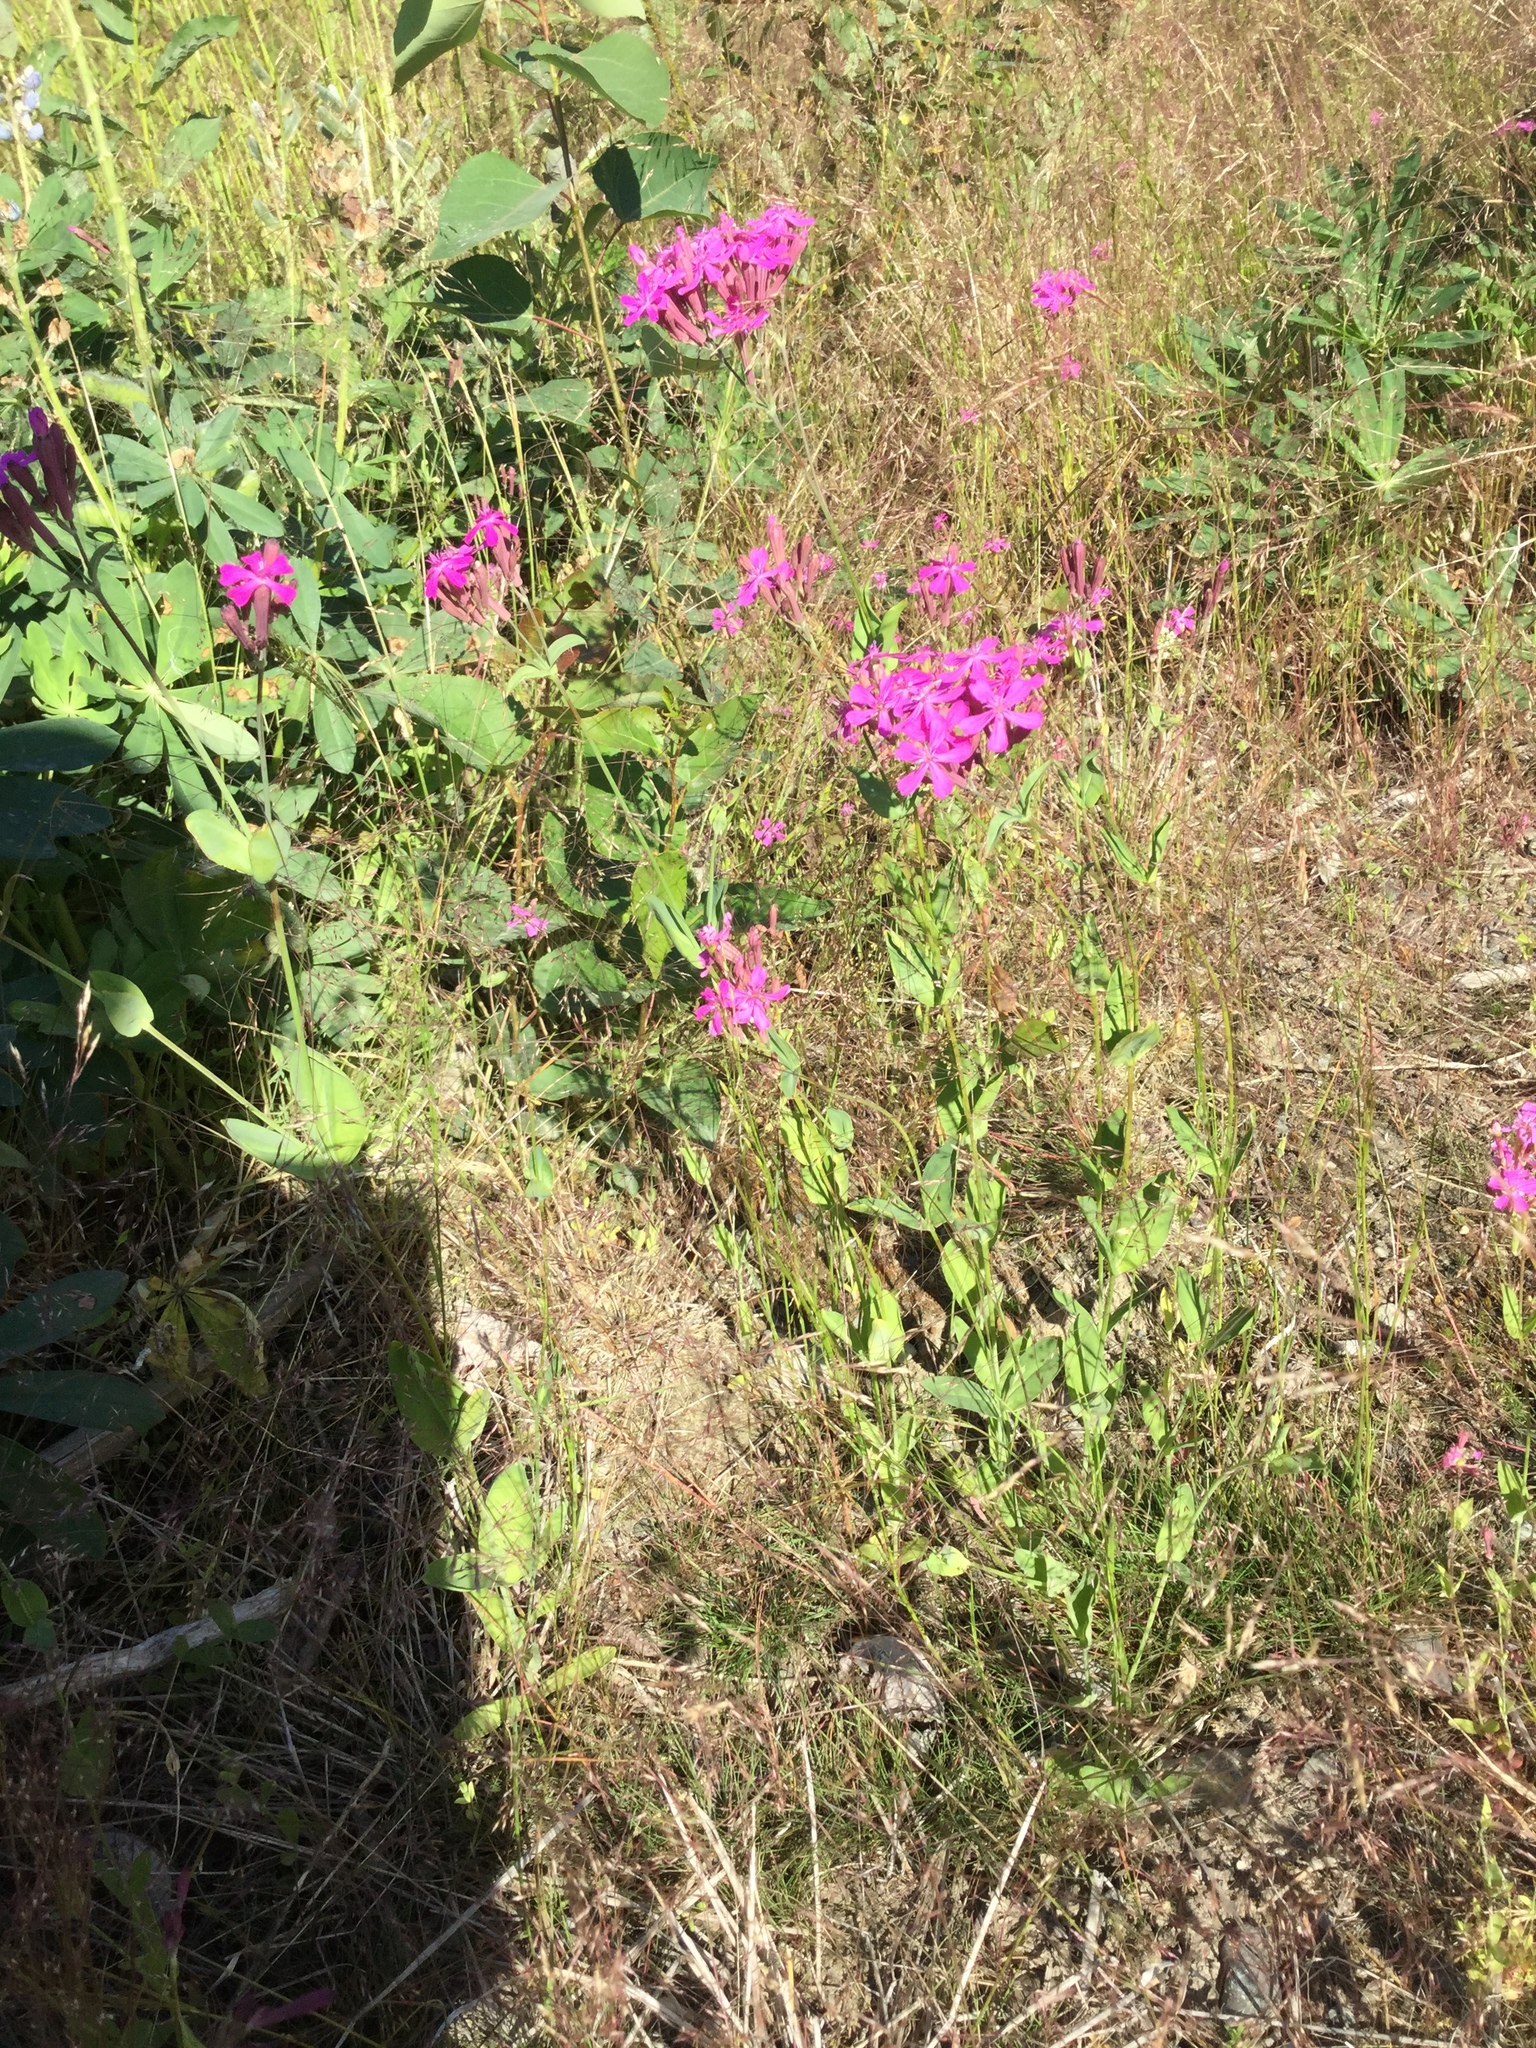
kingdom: Plantae
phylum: Tracheophyta
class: Magnoliopsida
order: Caryophyllales
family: Caryophyllaceae
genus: Atocion
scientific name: Atocion armeria
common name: Sweet william catchfly
